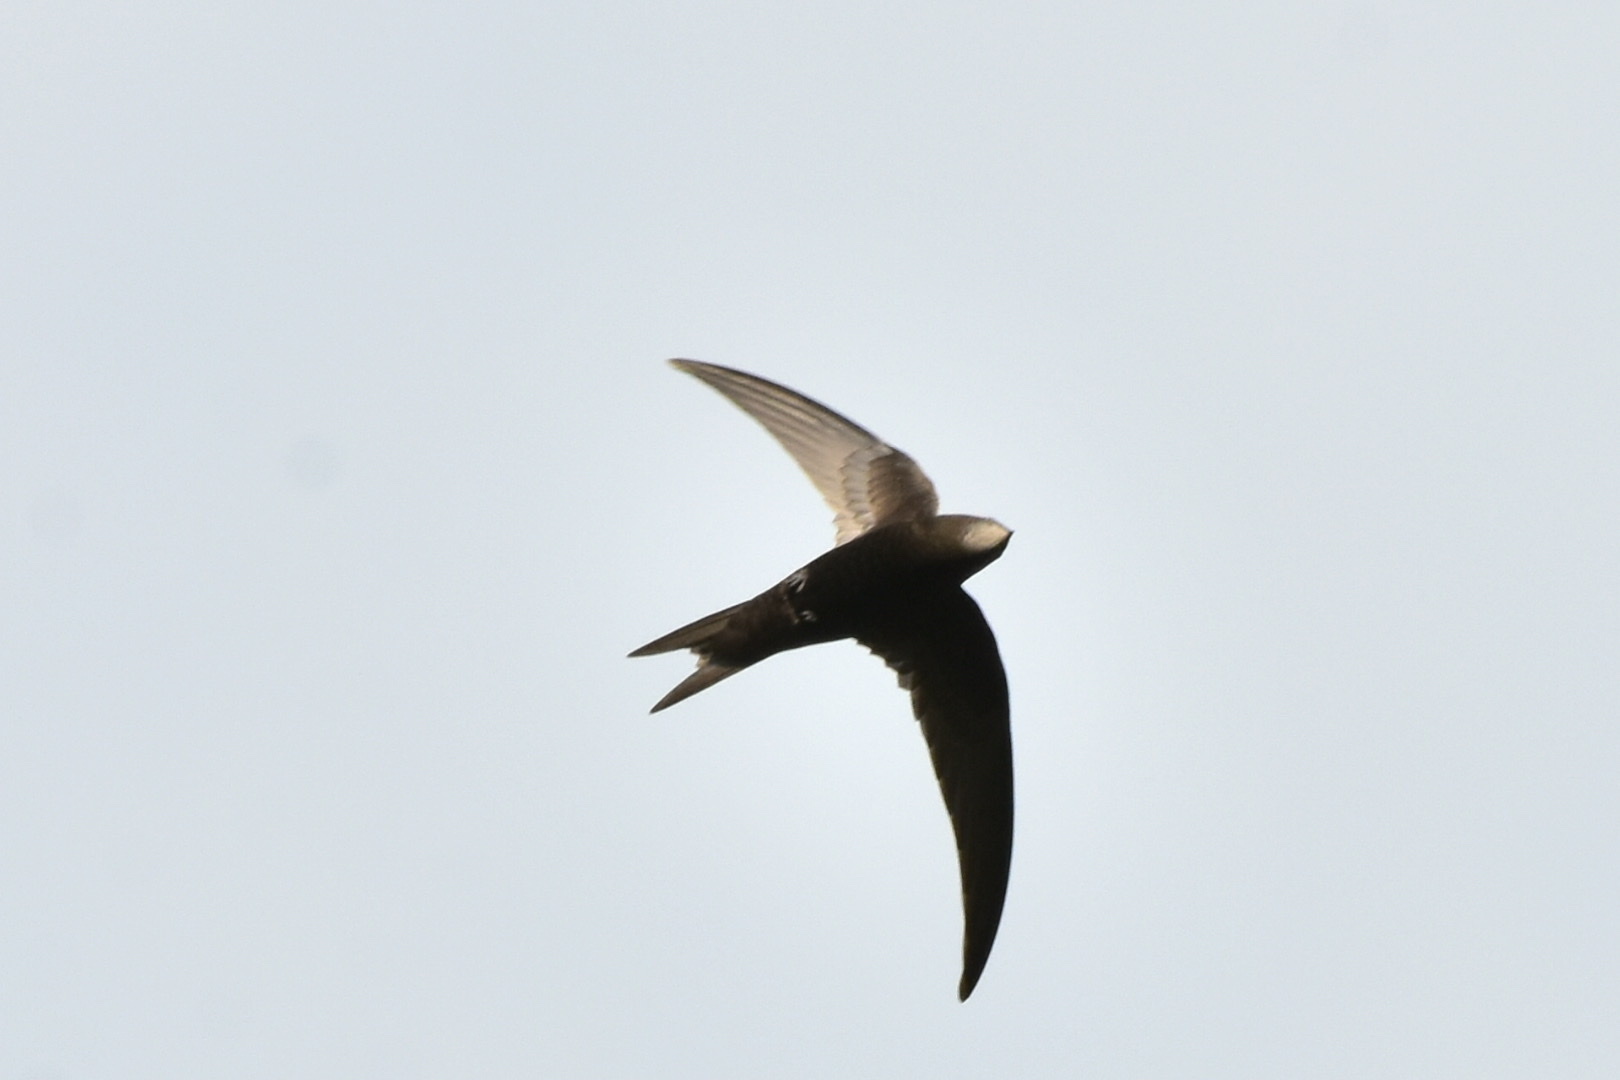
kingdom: Animalia
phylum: Chordata
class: Aves
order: Apodiformes
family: Apodidae
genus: Apus
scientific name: Apus apus
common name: Common swift
